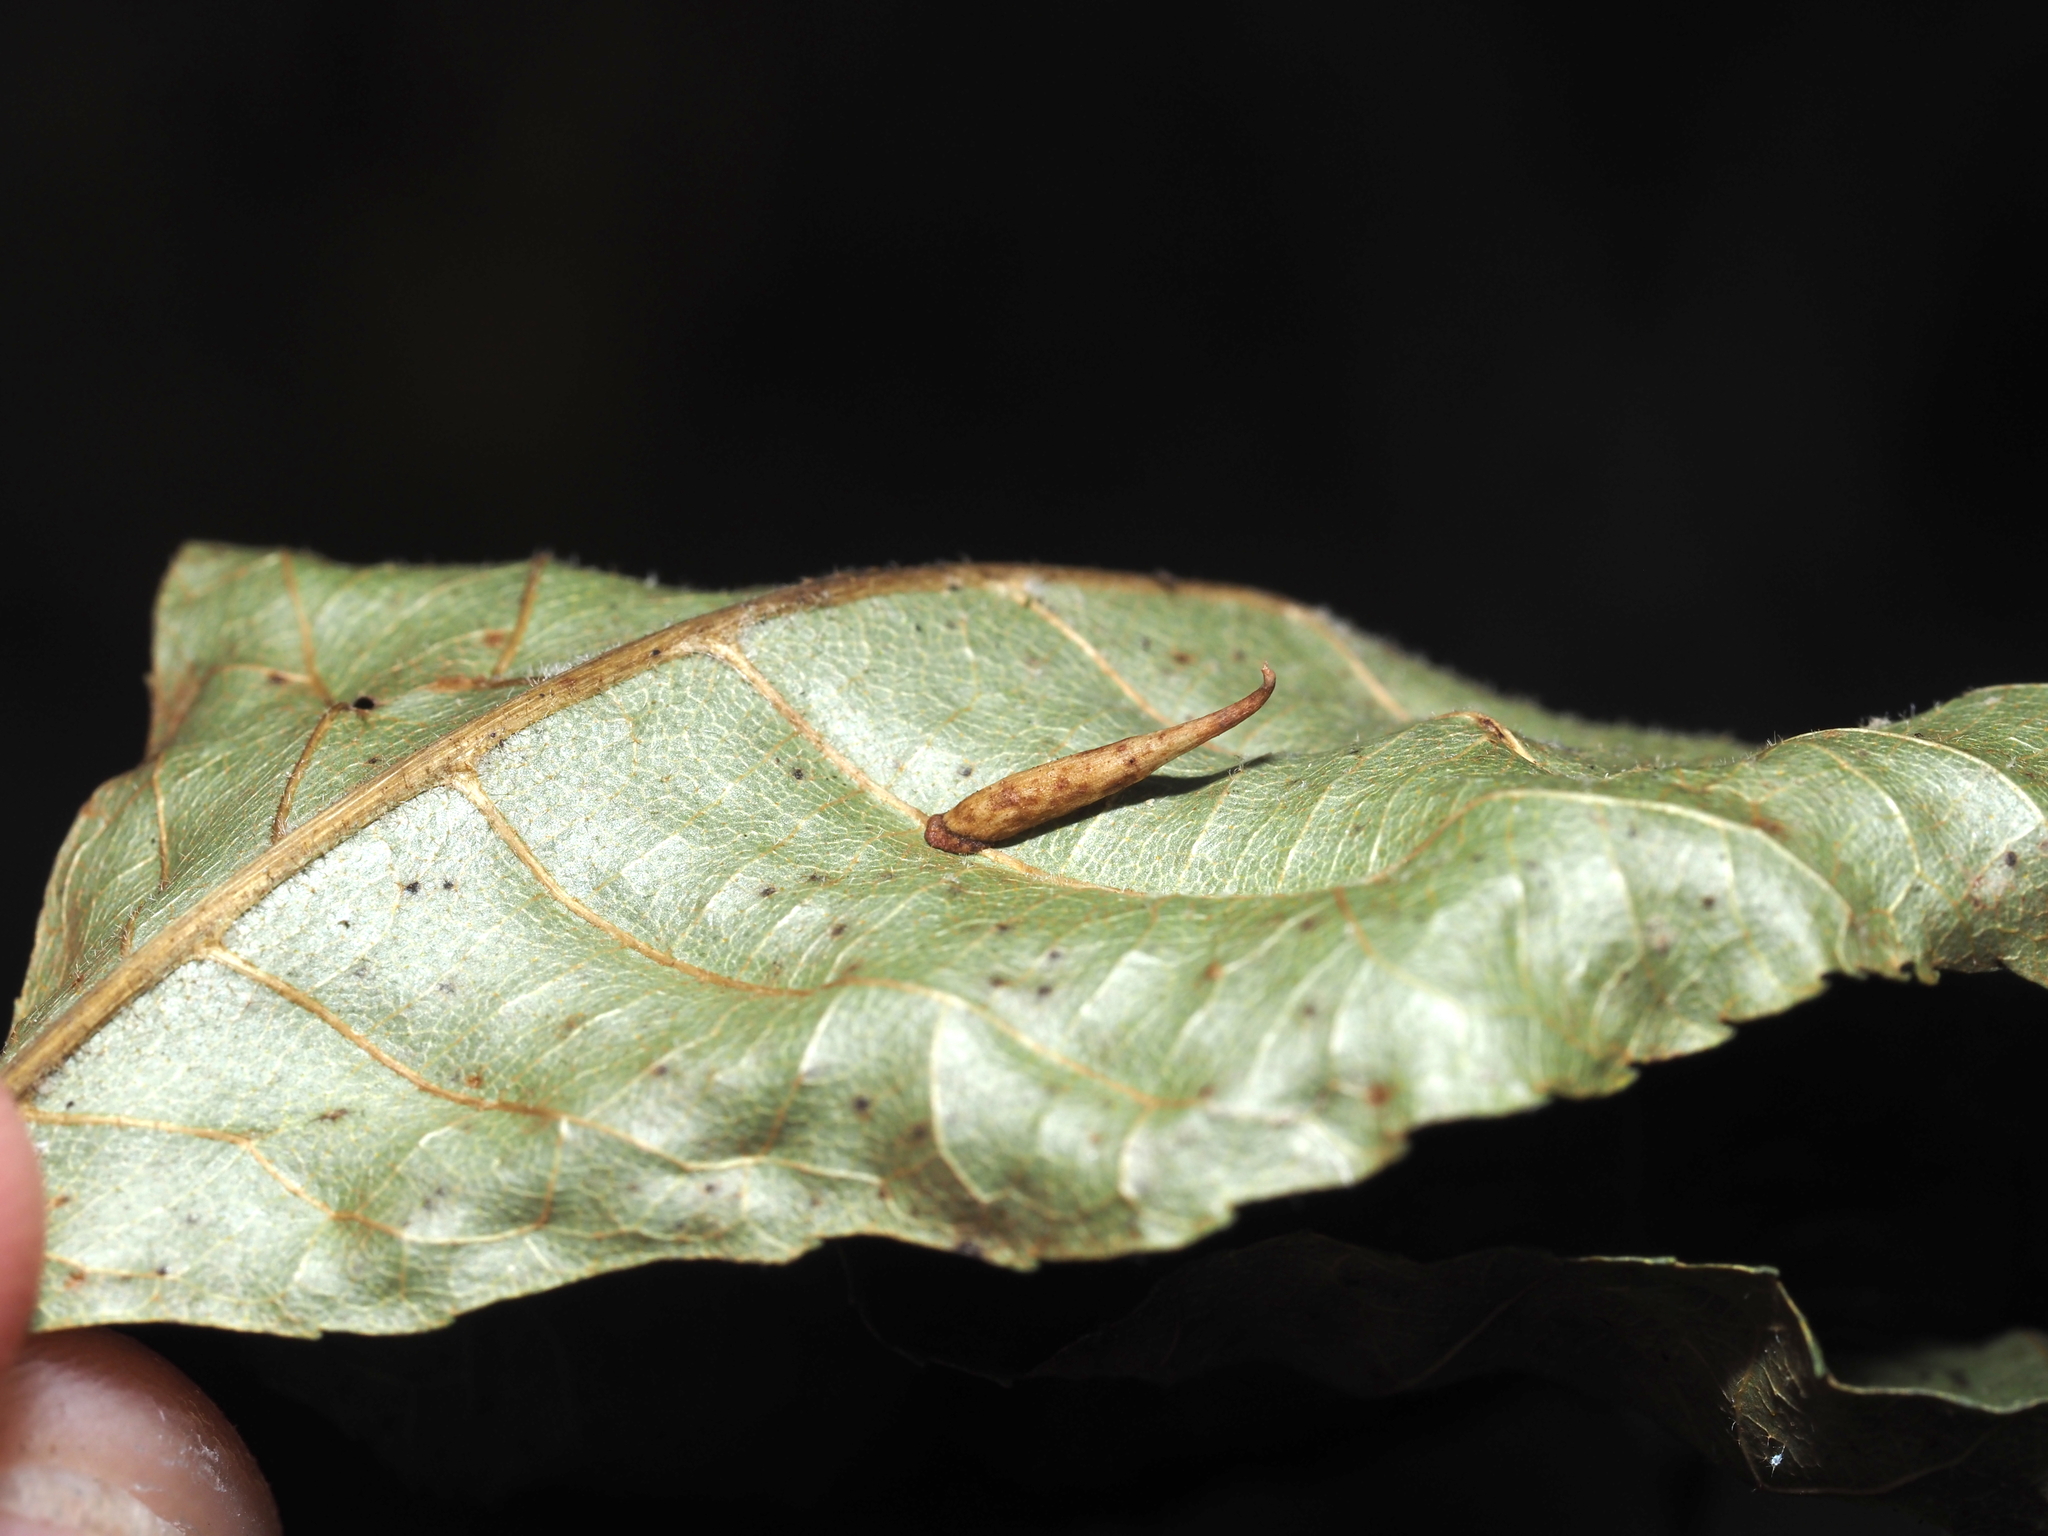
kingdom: Animalia
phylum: Arthropoda
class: Insecta
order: Diptera
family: Cecidomyiidae
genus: Caryomyia
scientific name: Caryomyia
